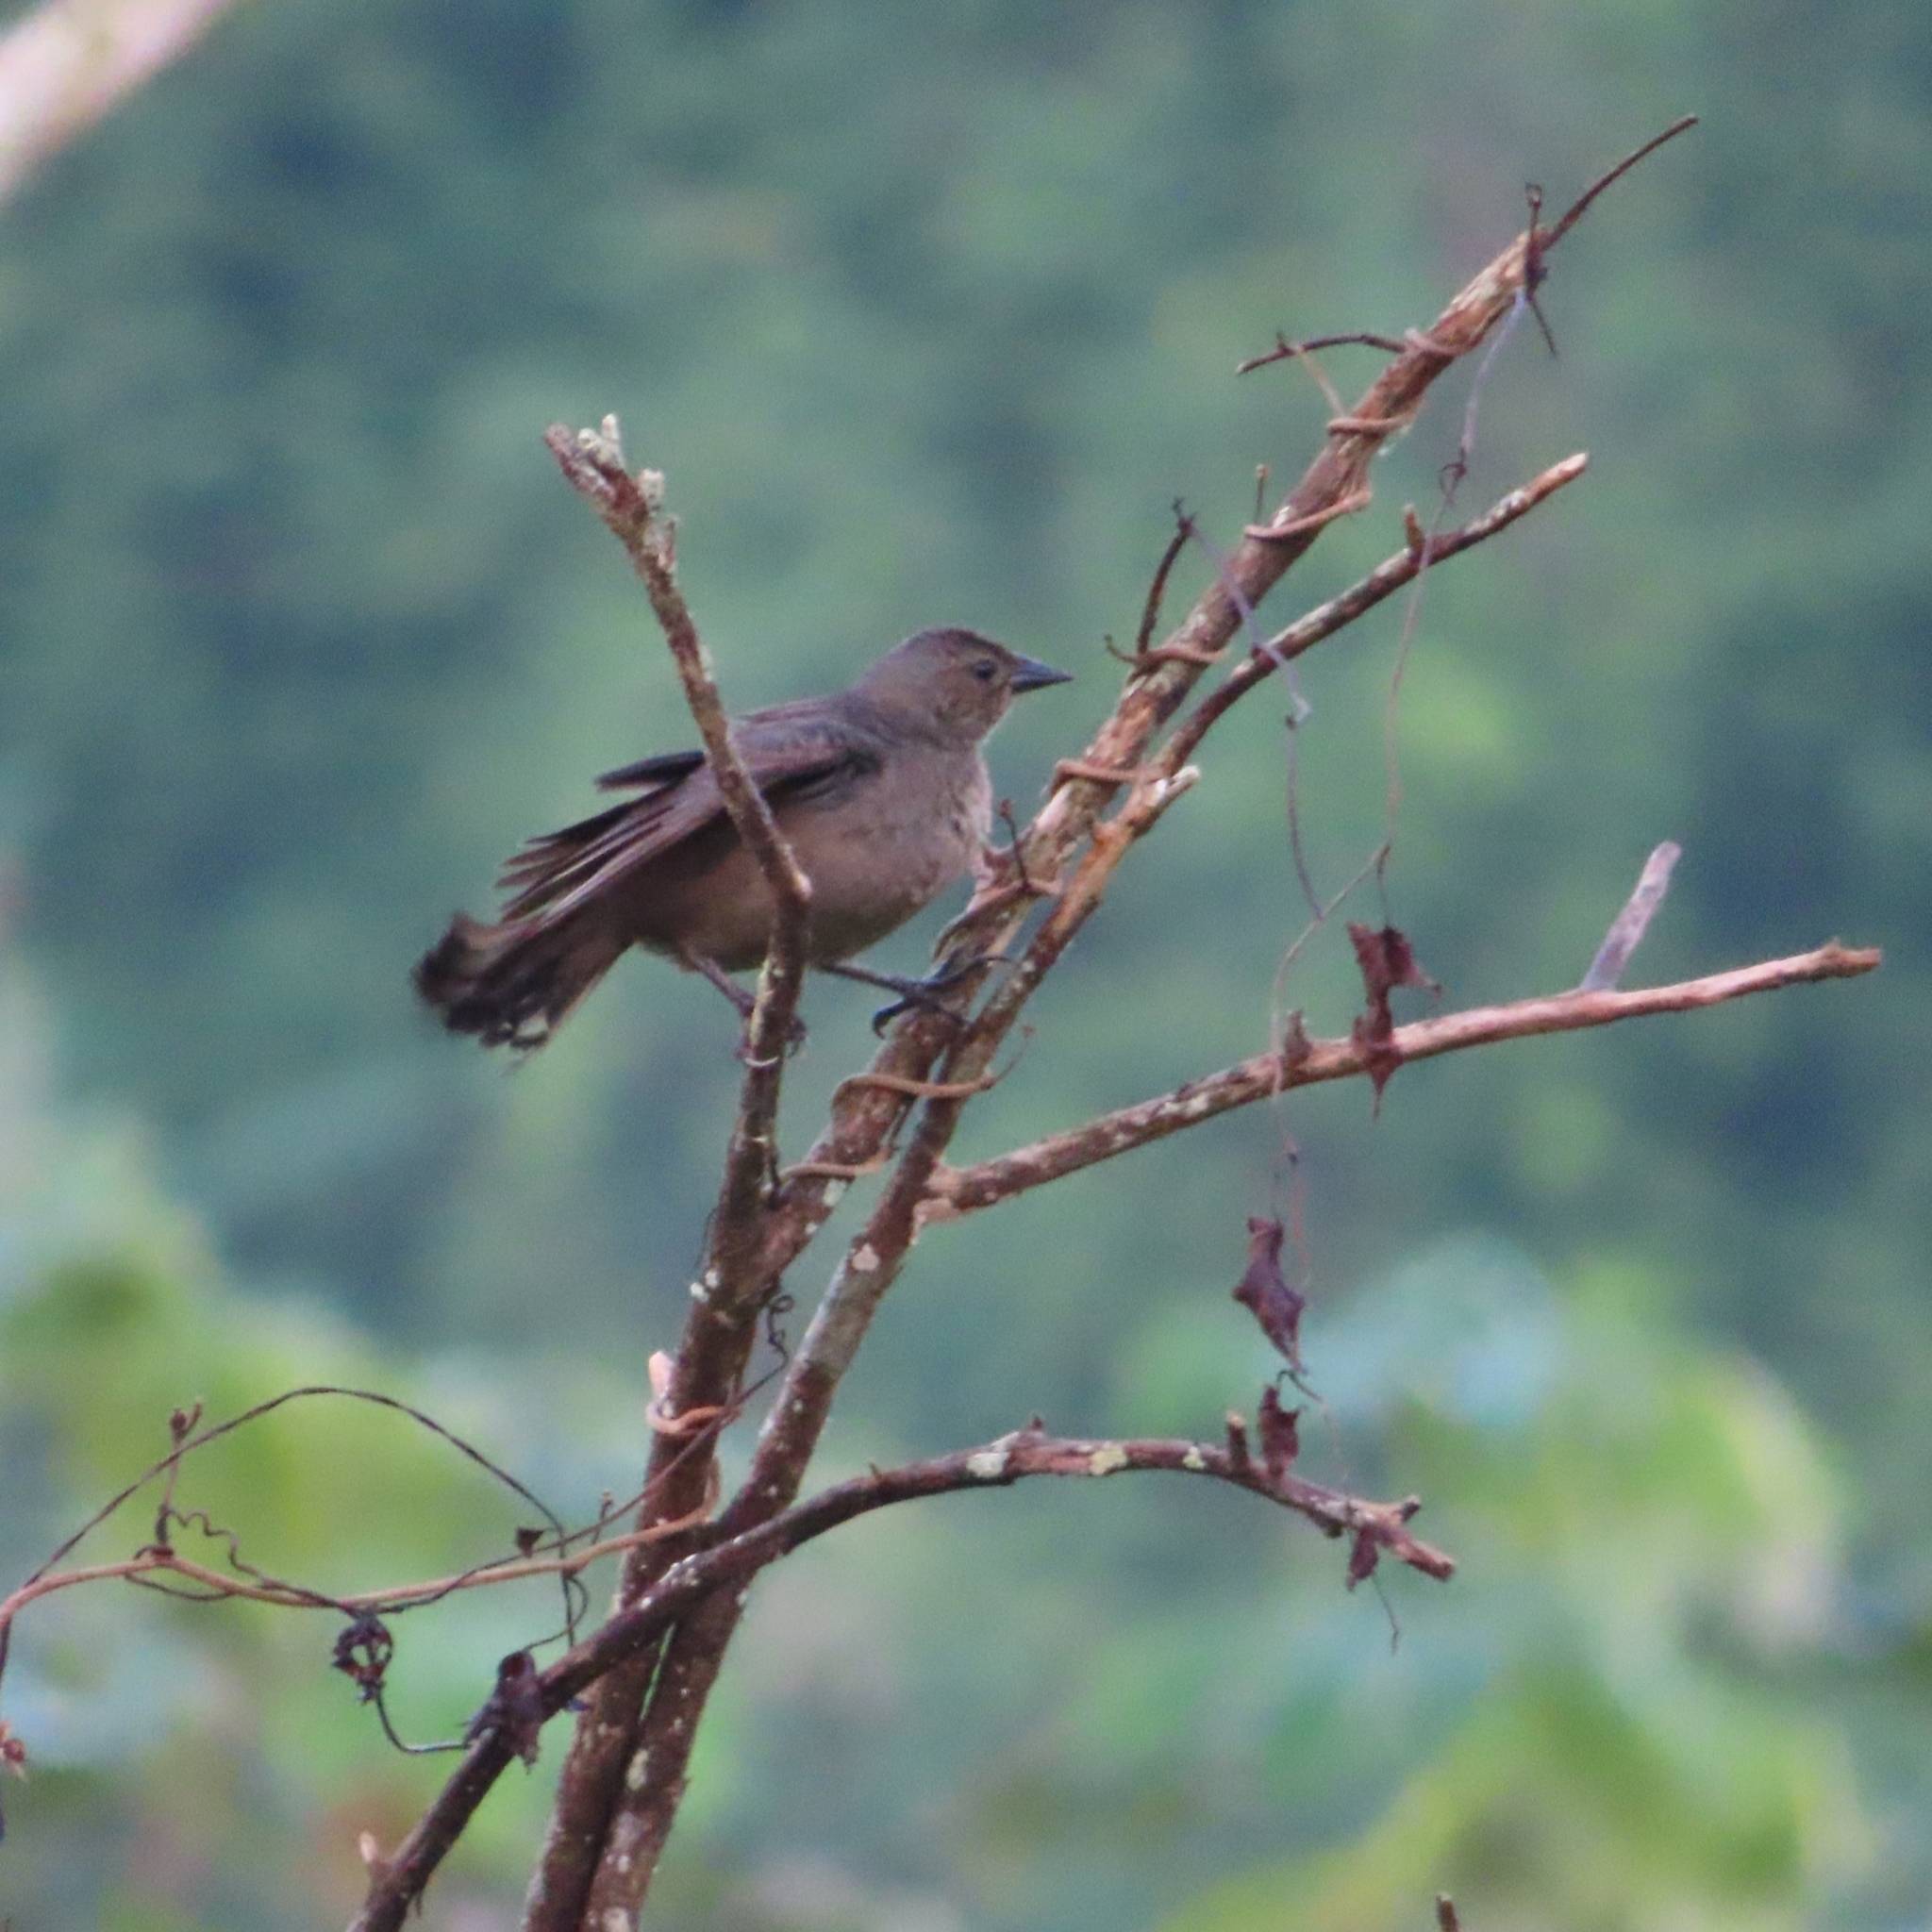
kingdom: Animalia
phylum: Chordata
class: Aves
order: Passeriformes
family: Icteridae
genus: Molothrus
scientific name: Molothrus bonariensis
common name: Shiny cowbird
